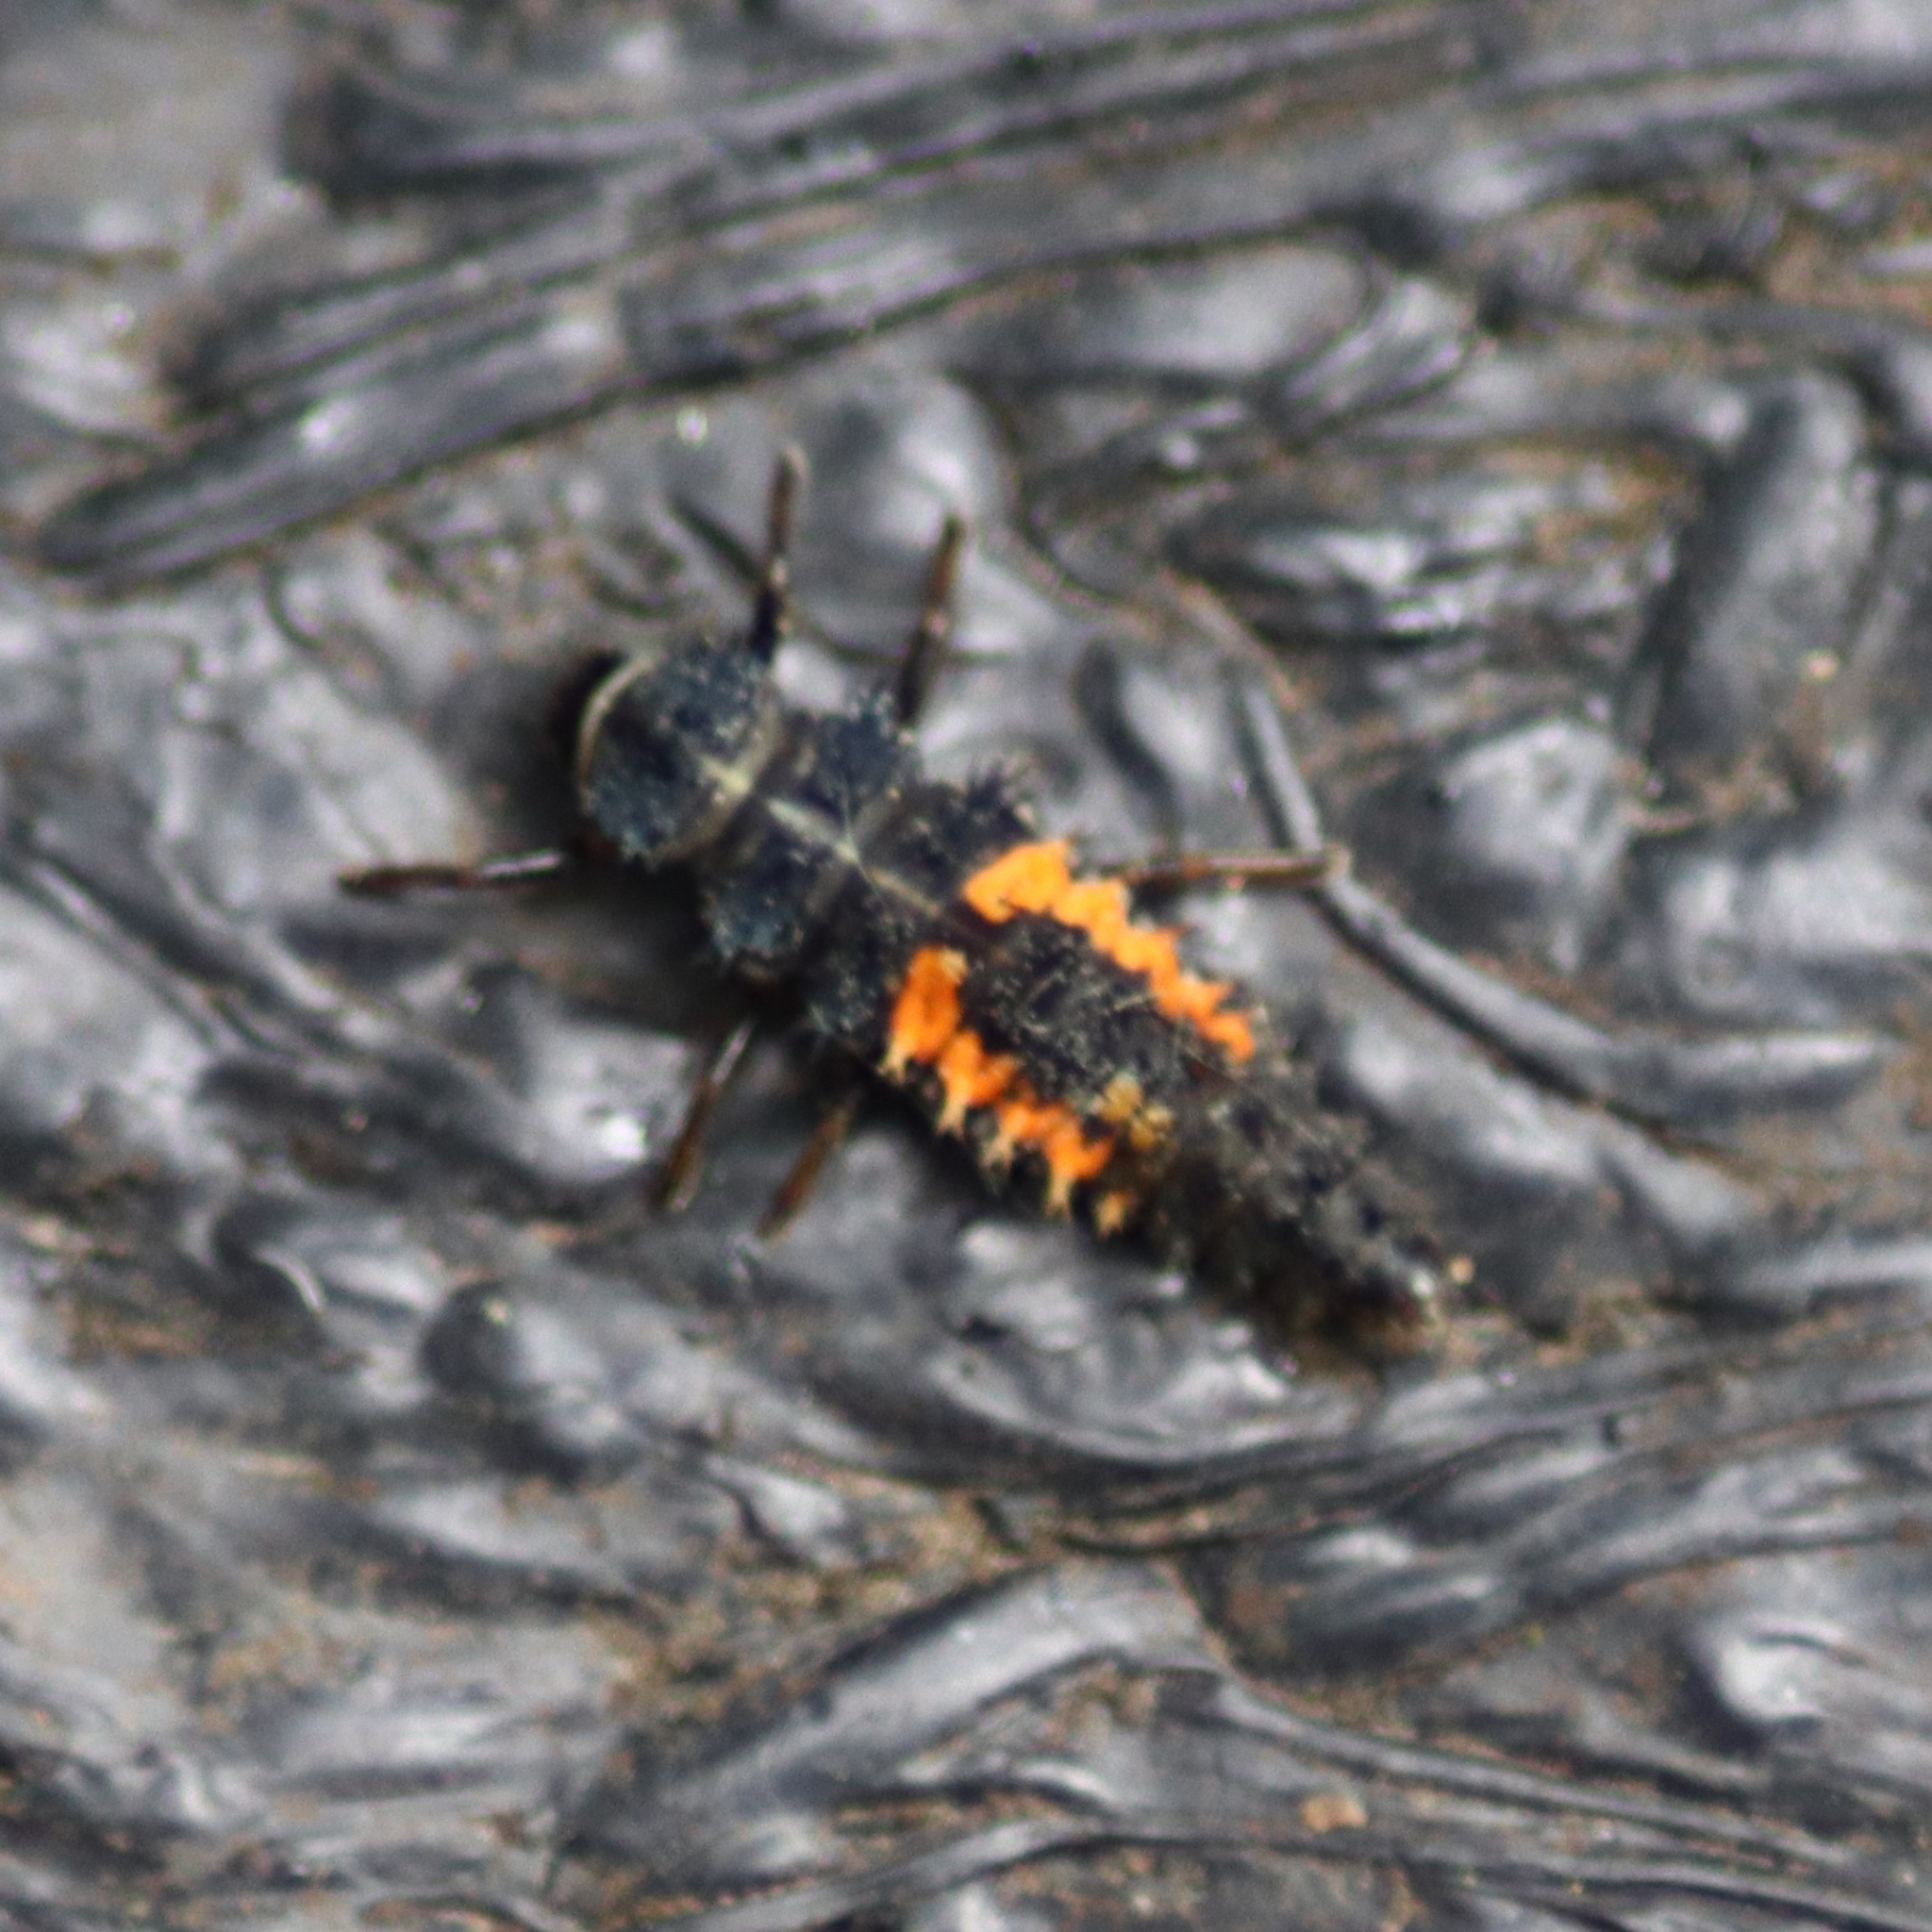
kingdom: Animalia
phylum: Arthropoda
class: Insecta
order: Coleoptera
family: Coccinellidae
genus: Harmonia
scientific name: Harmonia axyridis
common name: Harlequin ladybird
